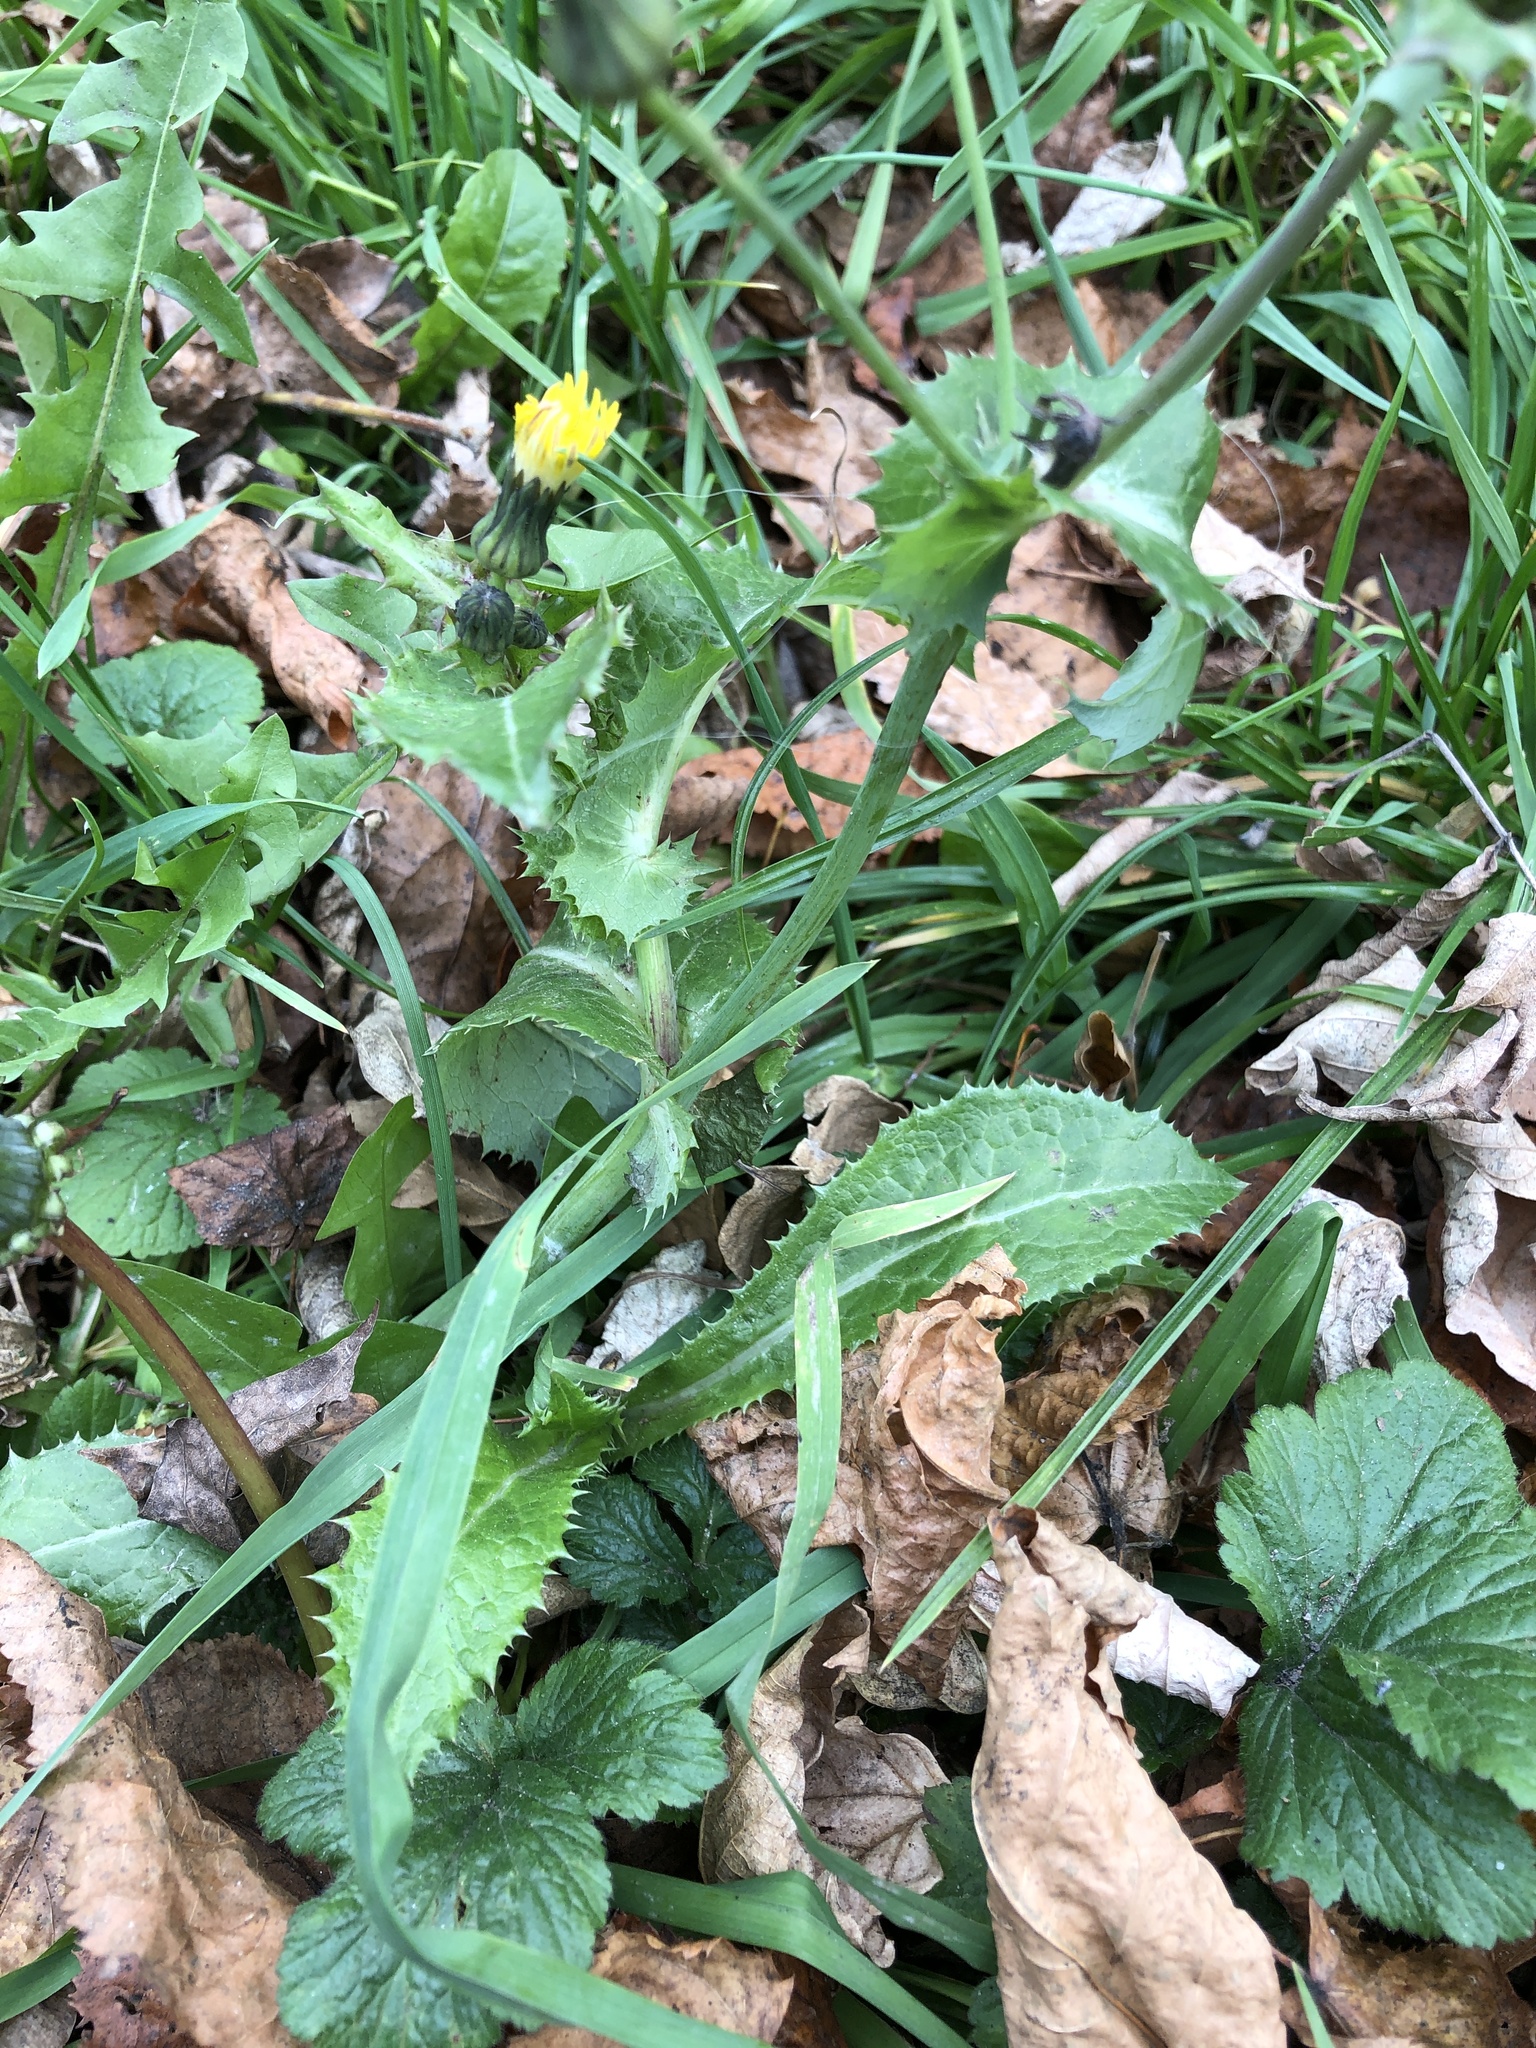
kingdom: Plantae
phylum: Tracheophyta
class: Magnoliopsida
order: Asterales
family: Asteraceae
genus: Sonchus
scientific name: Sonchus asper
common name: Prickly sow-thistle
